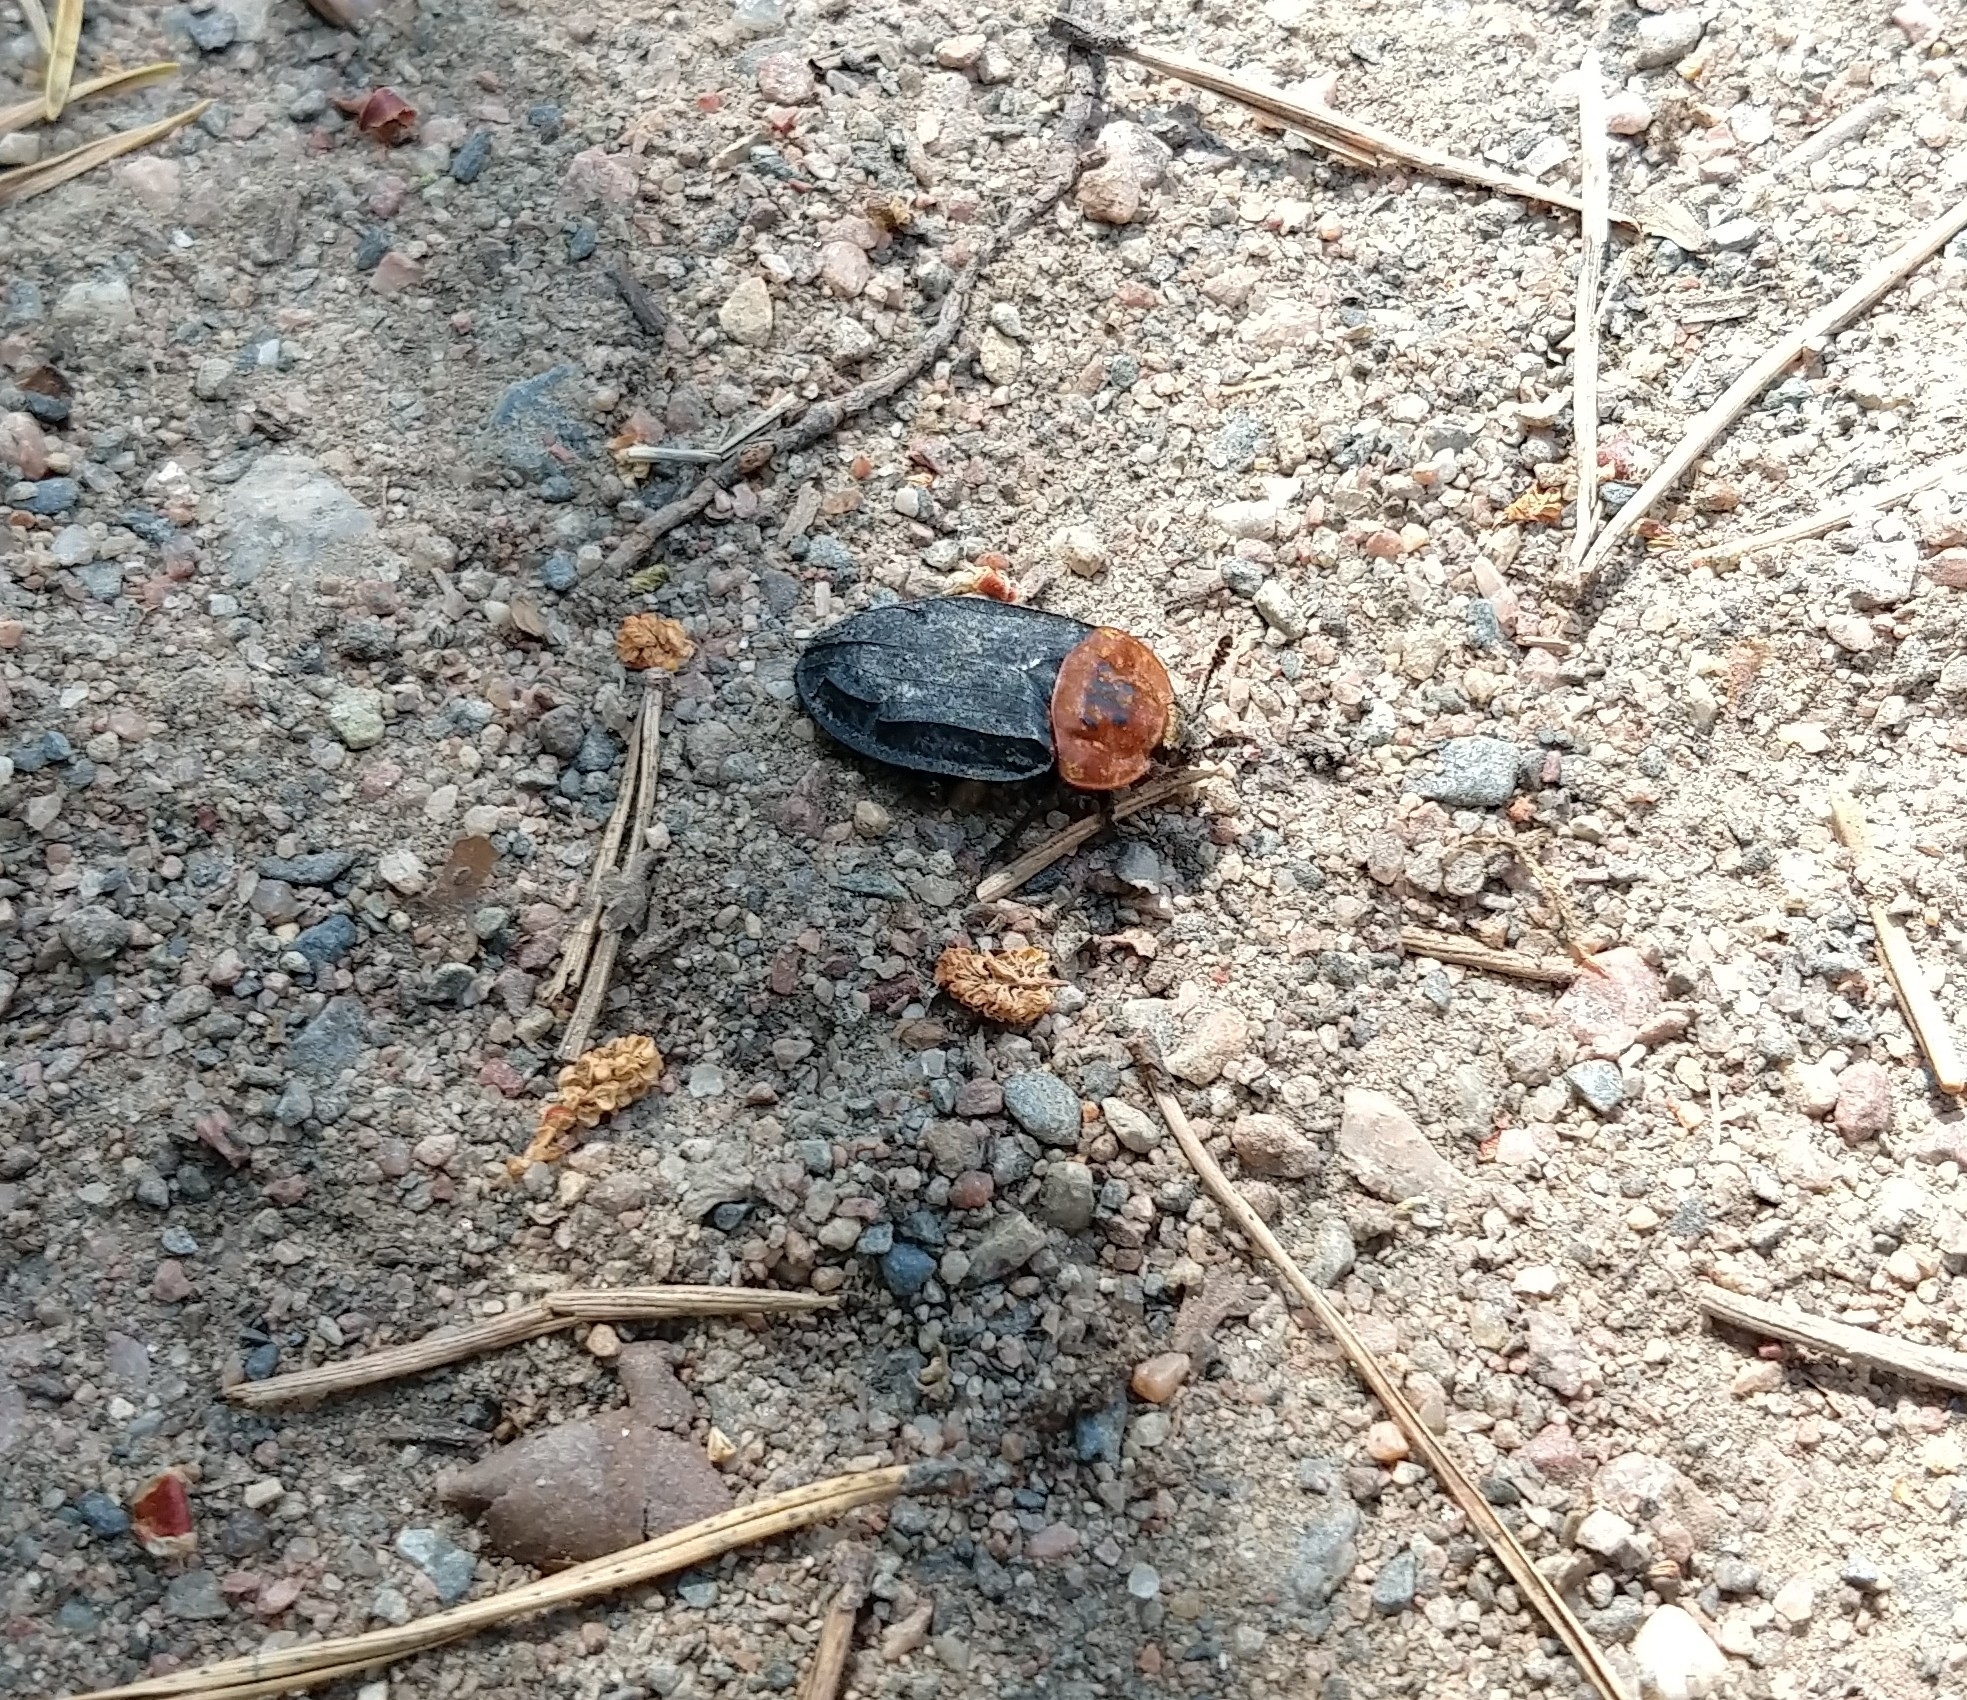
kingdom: Animalia
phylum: Arthropoda
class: Insecta
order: Coleoptera
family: Staphylinidae
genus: Oiceoptoma
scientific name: Oiceoptoma thoracicum
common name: Red-breasted carrion beetle
